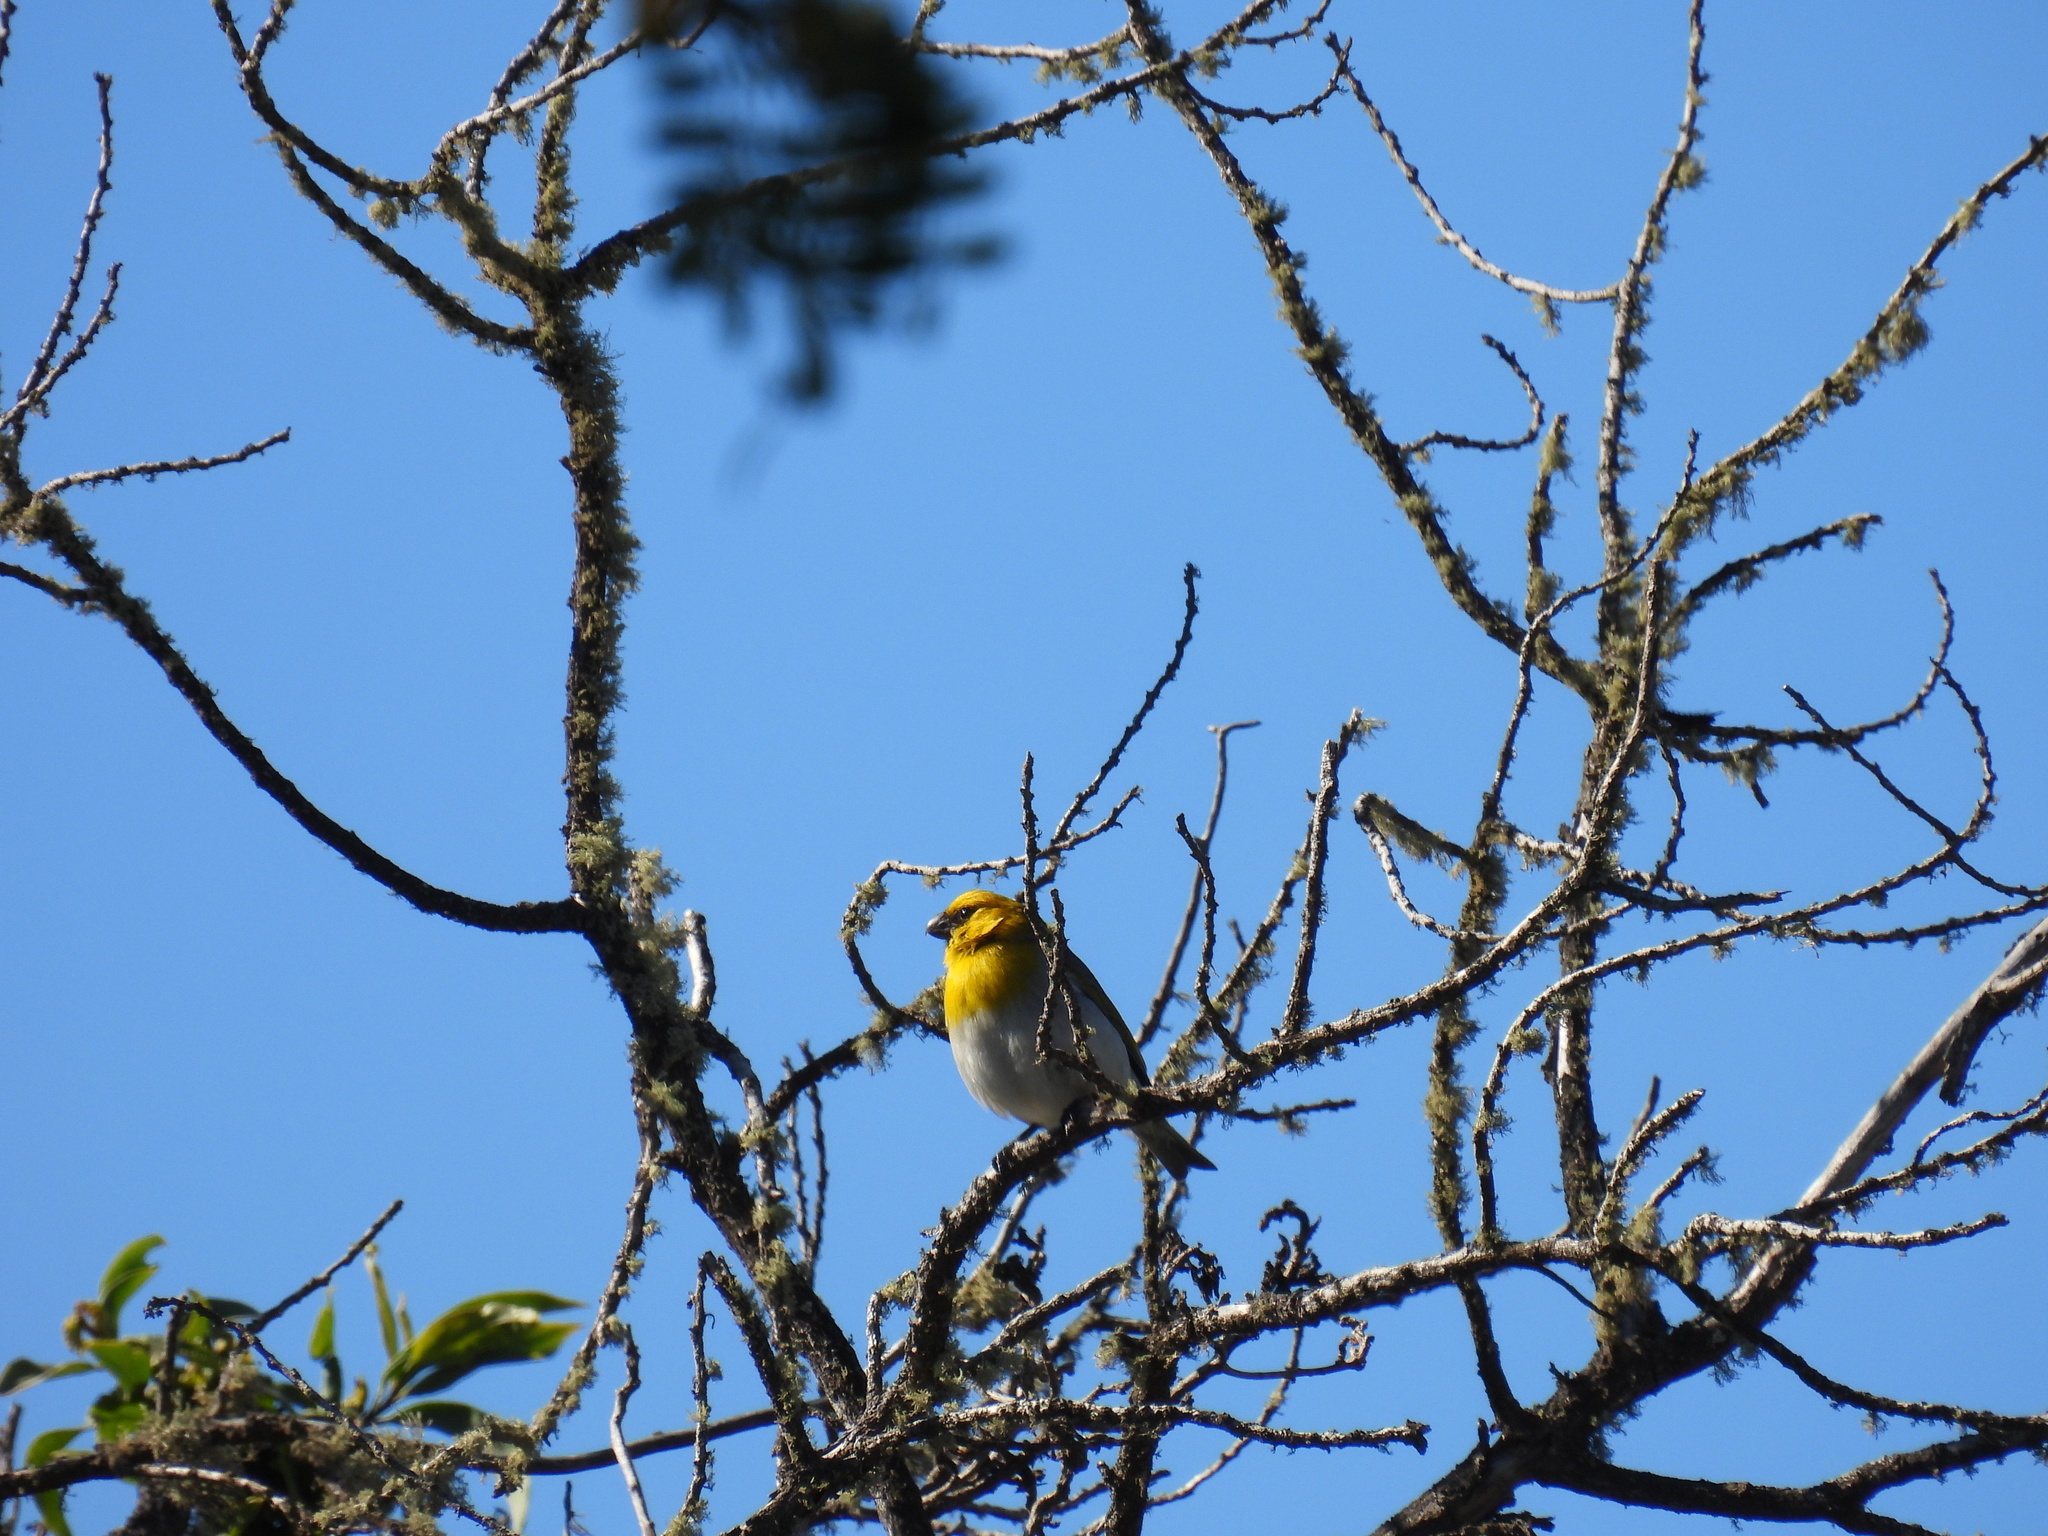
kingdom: Animalia
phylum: Chordata
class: Aves
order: Passeriformes
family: Fringillidae
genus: Loxioides
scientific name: Loxioides bailleui
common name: Palila
